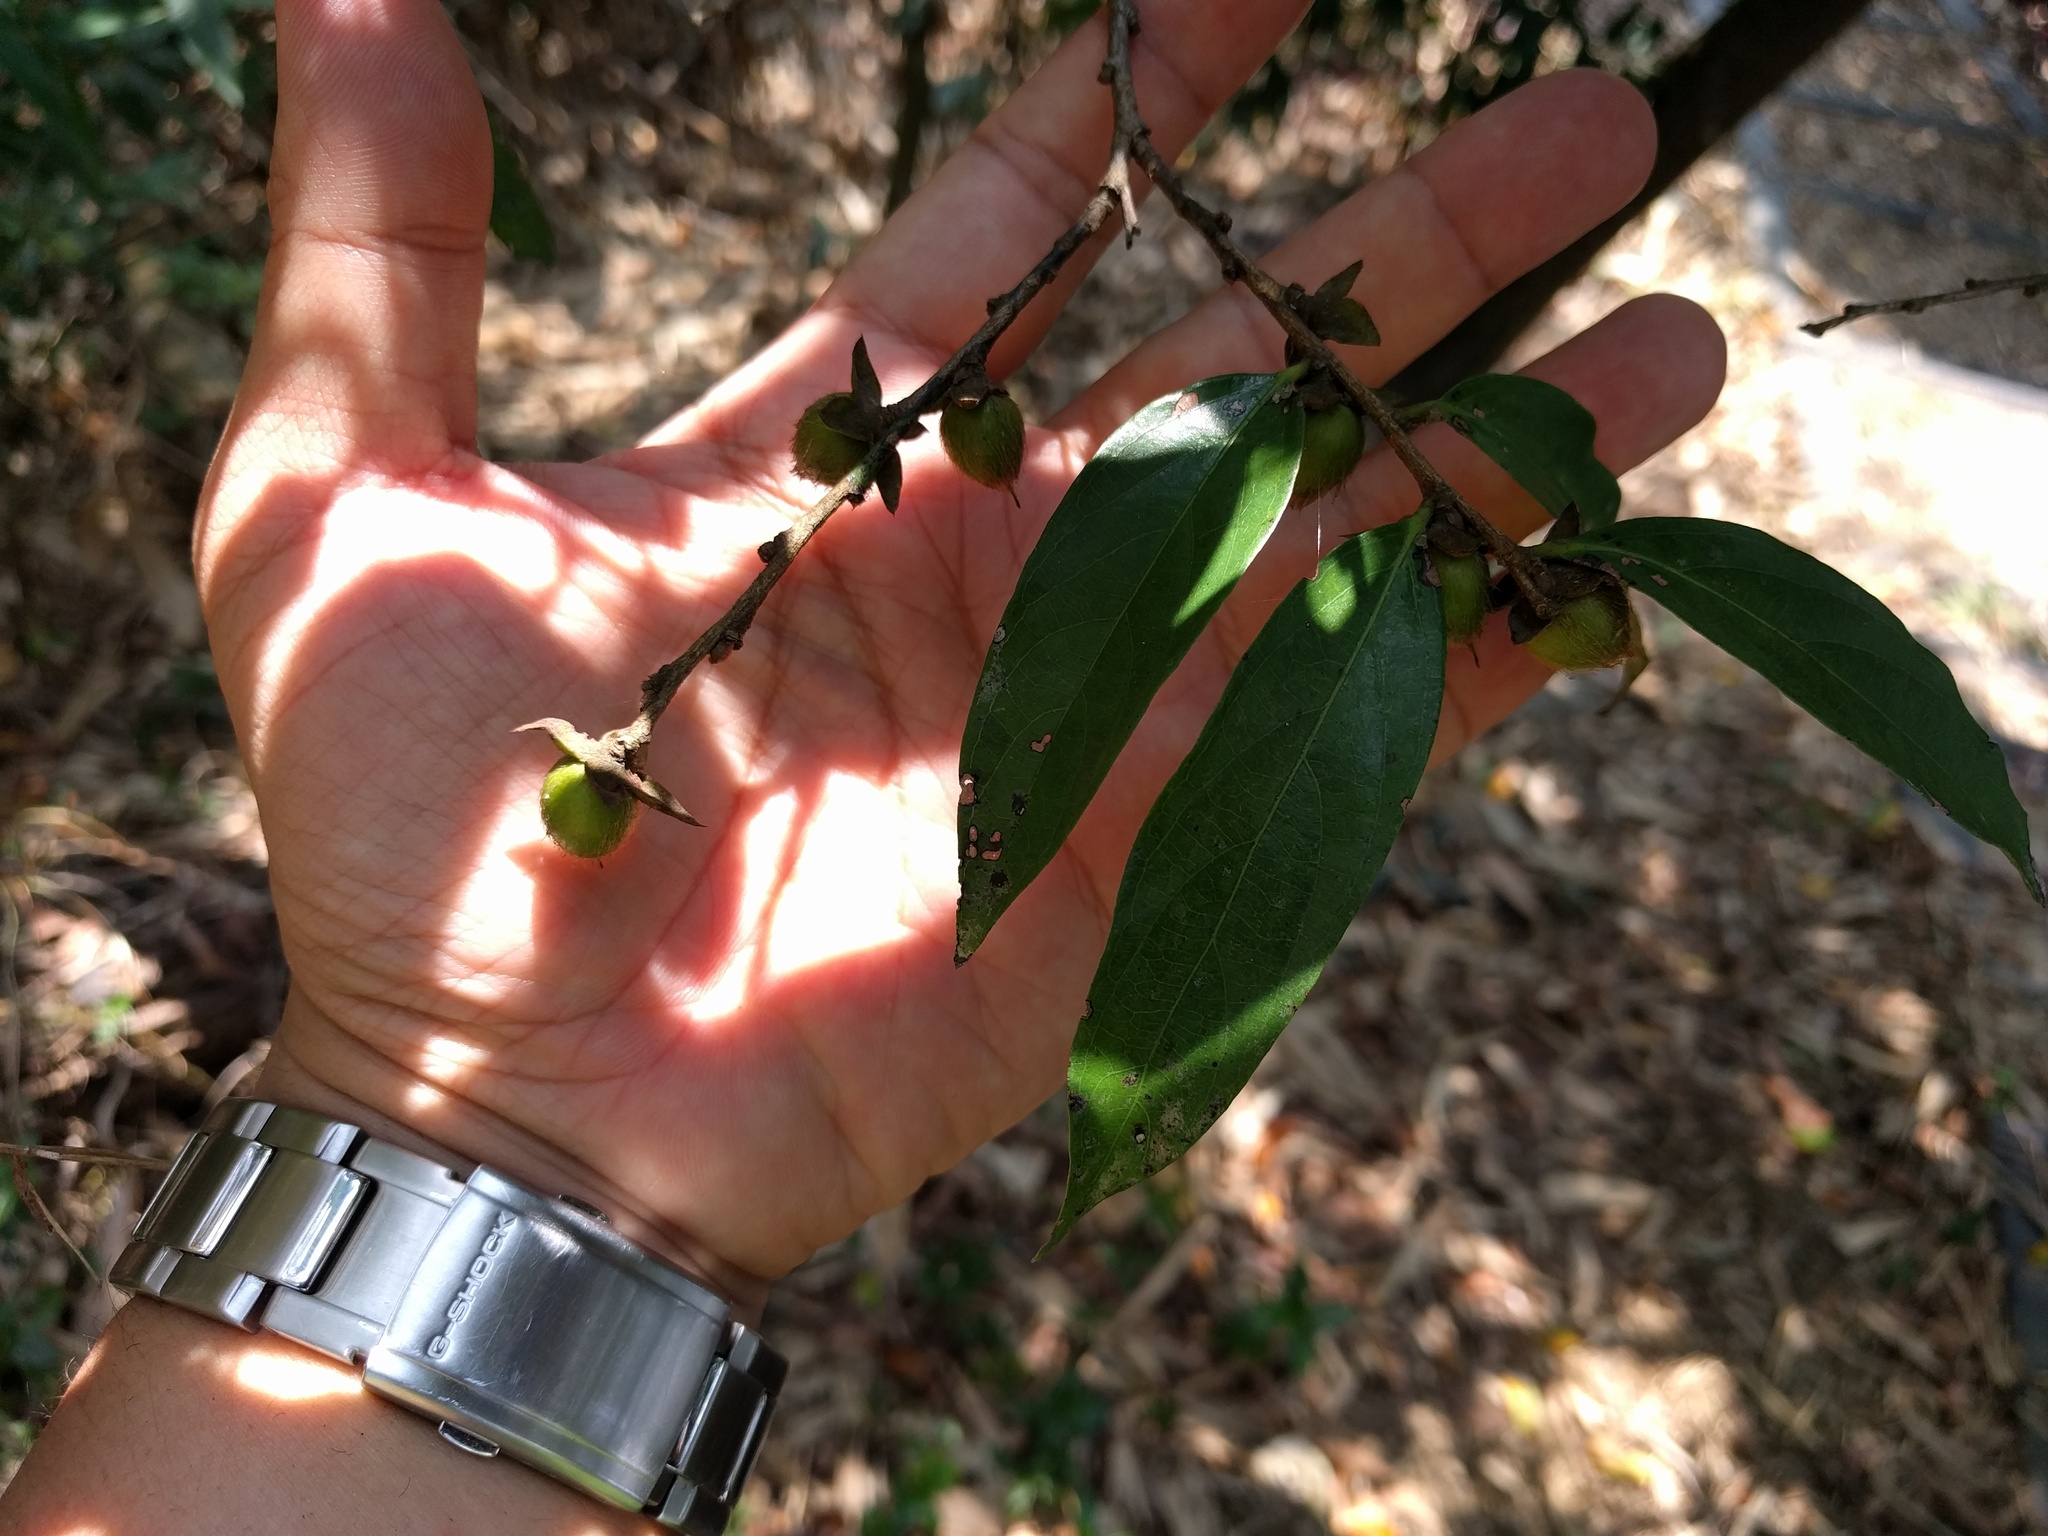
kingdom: Plantae
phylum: Tracheophyta
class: Magnoliopsida
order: Ericales
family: Ebenaceae
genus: Diospyros
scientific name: Diospyros eriantha
